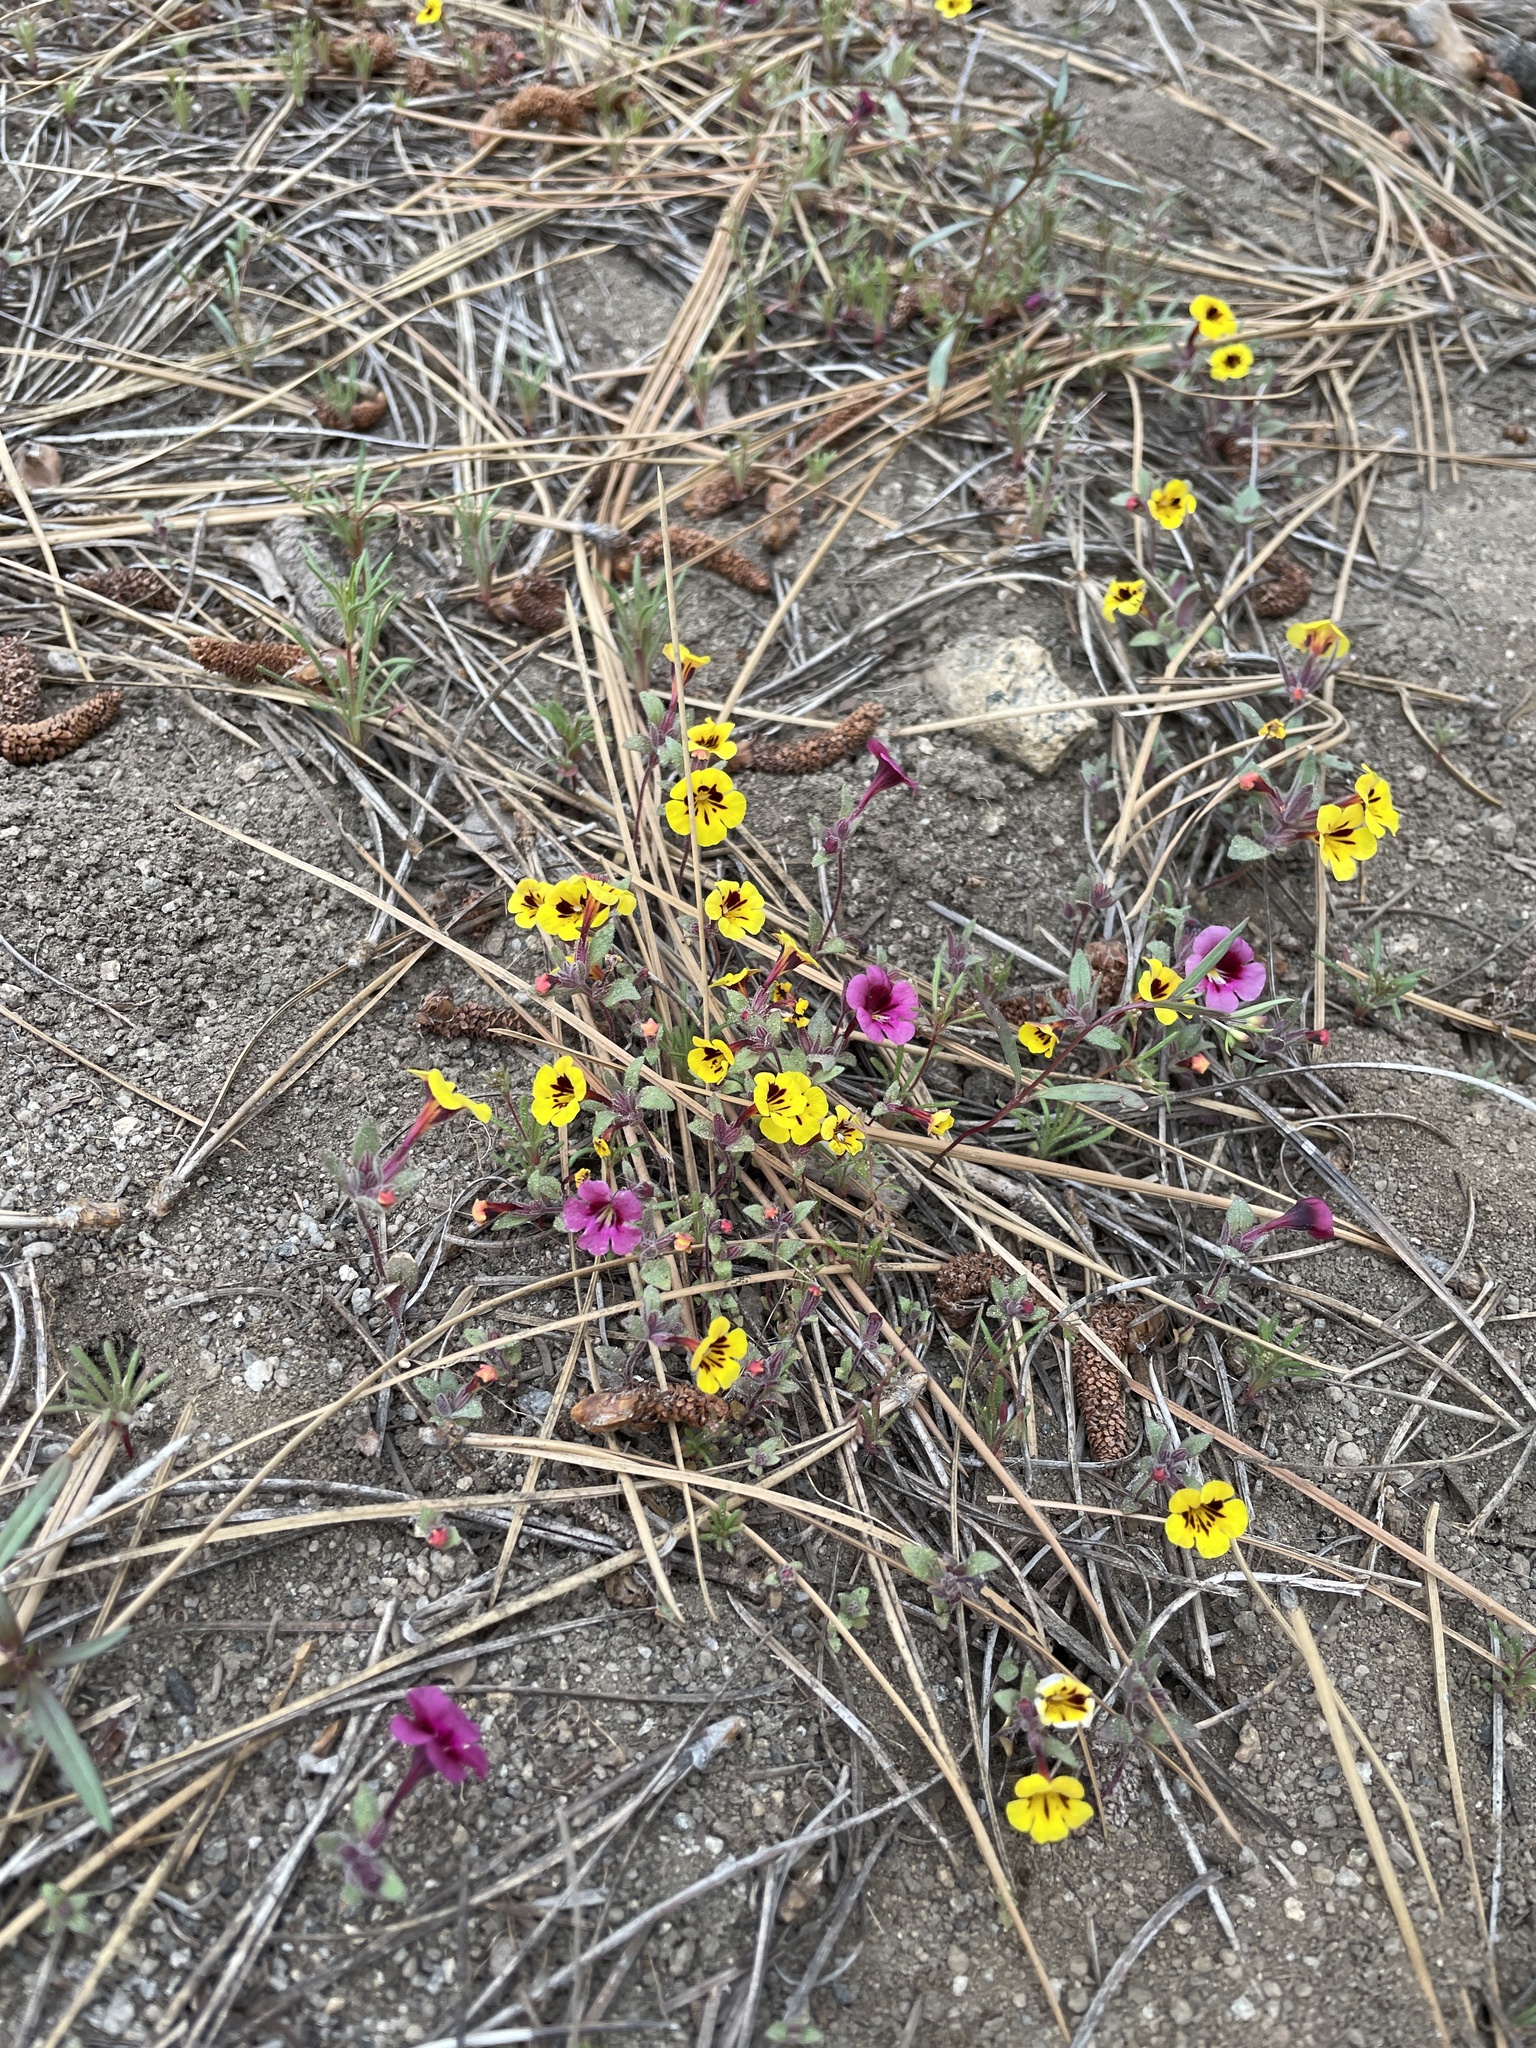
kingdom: Plantae
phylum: Tracheophyta
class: Magnoliopsida
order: Lamiales
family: Phrymaceae
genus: Diplacus
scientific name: Diplacus bicolor
